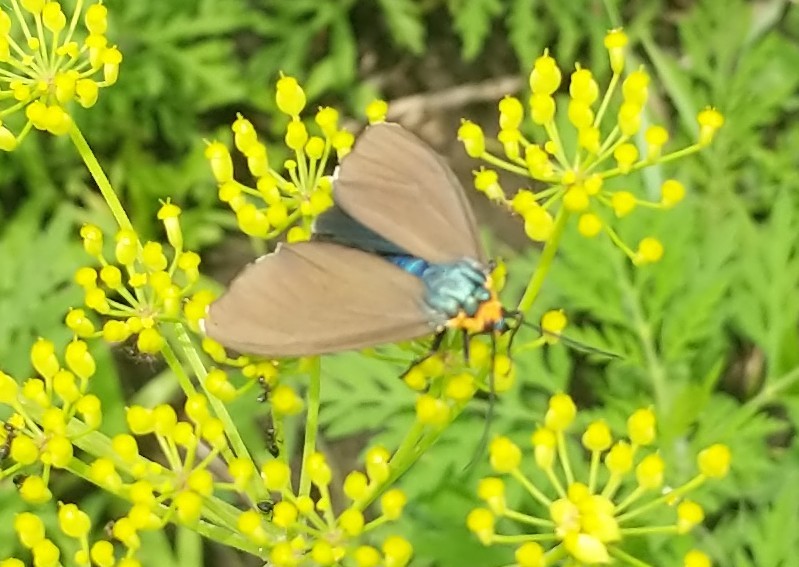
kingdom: Animalia
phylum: Arthropoda
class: Insecta
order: Lepidoptera
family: Erebidae
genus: Ctenucha
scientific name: Ctenucha virginica
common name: Virginia ctenucha moth
